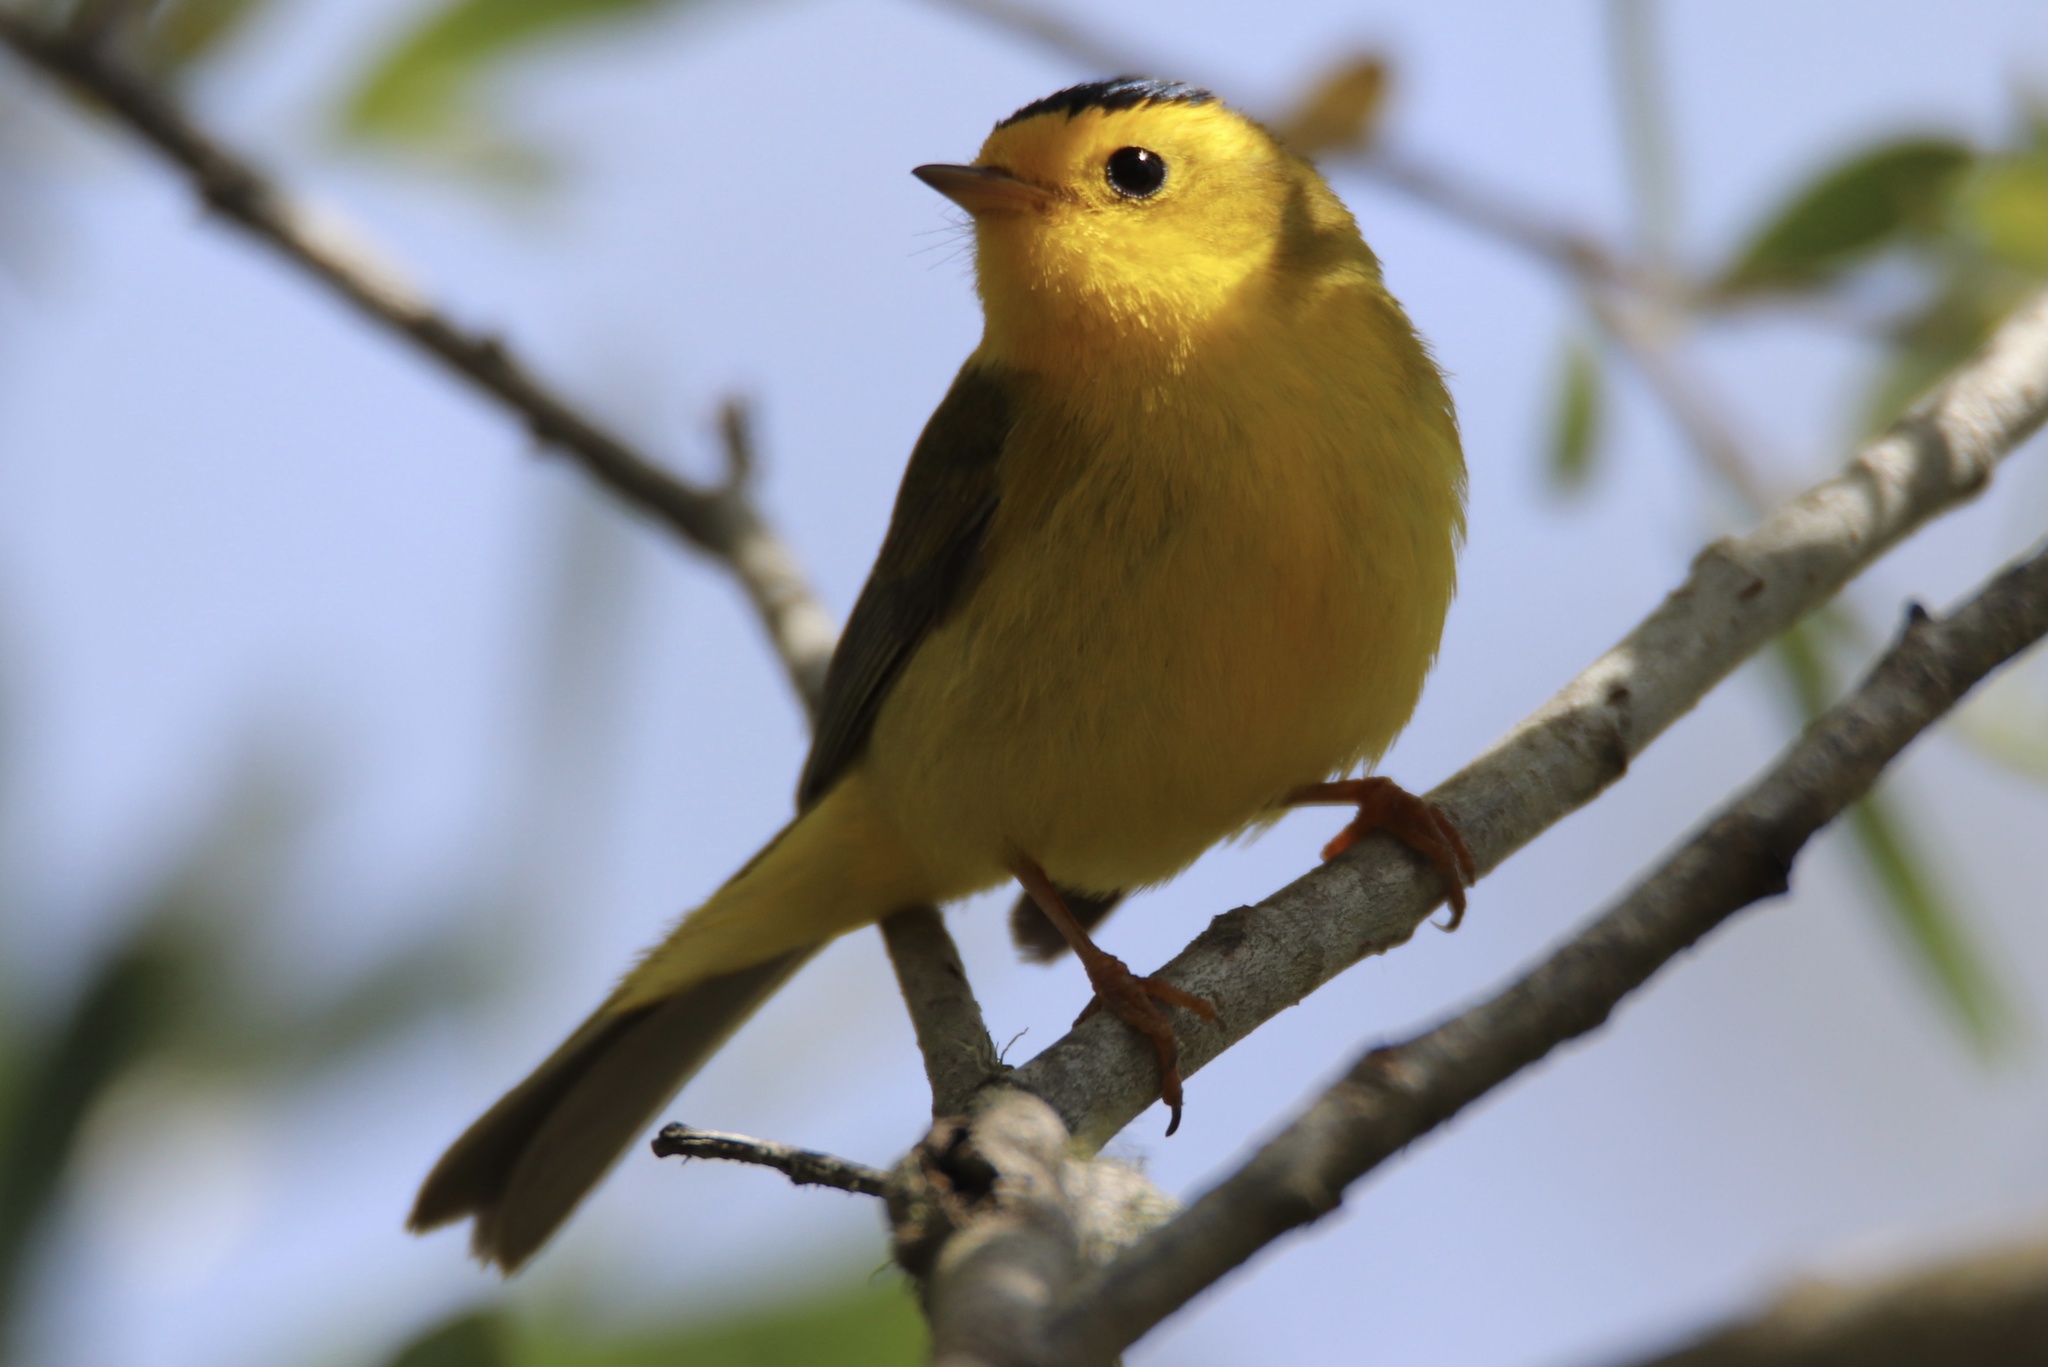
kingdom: Animalia
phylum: Chordata
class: Aves
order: Passeriformes
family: Parulidae
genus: Cardellina
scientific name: Cardellina pusilla
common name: Wilson's warbler
